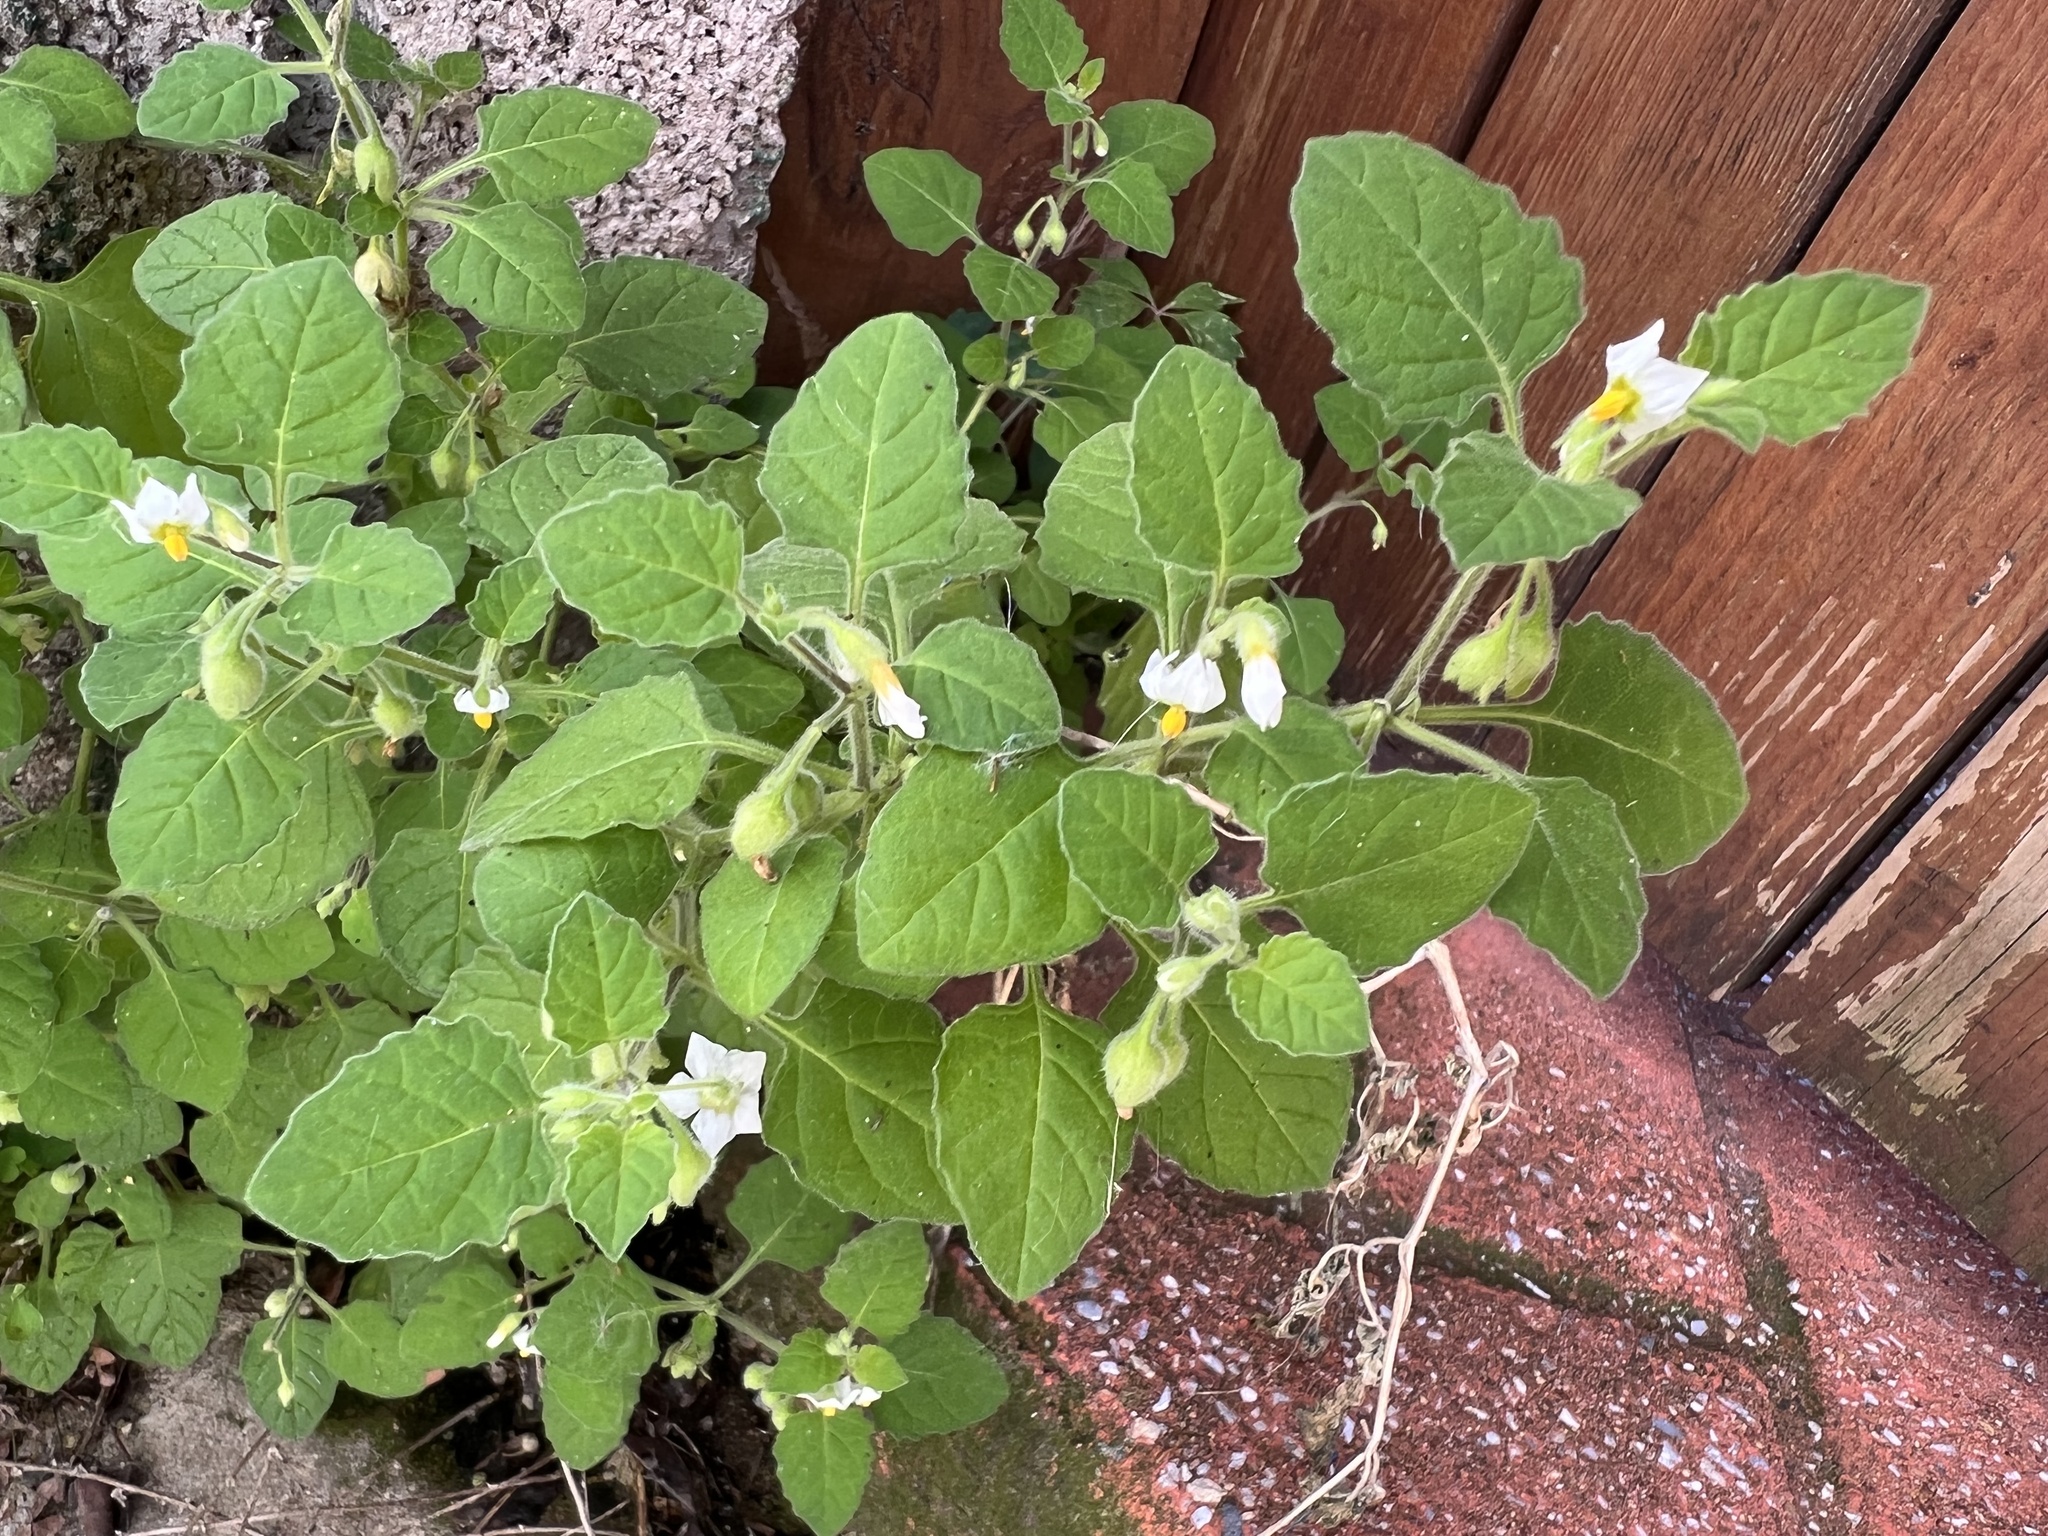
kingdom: Plantae
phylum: Tracheophyta
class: Magnoliopsida
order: Solanales
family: Solanaceae
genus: Solanum
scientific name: Solanum sarrachoides
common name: Leafy-fruited nightshade
